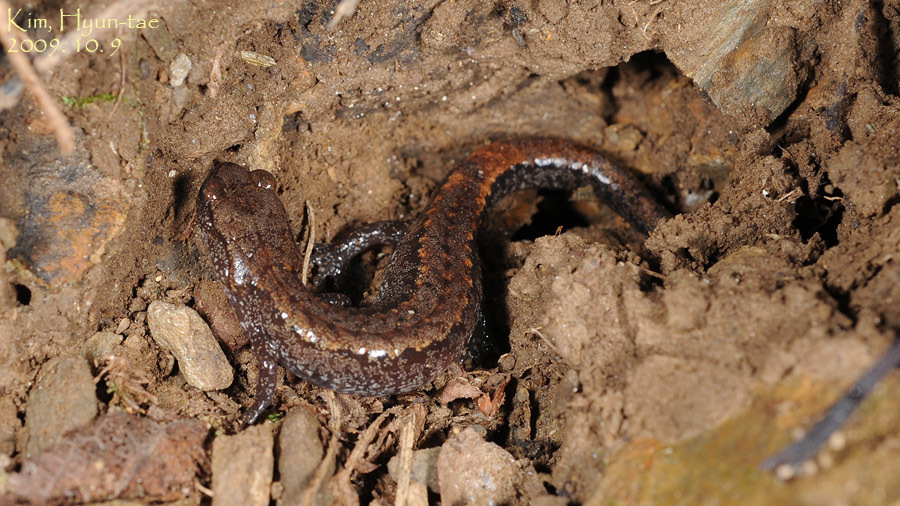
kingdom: Animalia
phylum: Chordata
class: Amphibia
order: Caudata
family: Plethodontidae
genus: Karsenia
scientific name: Karsenia koreana
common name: Korean crevice salamander
